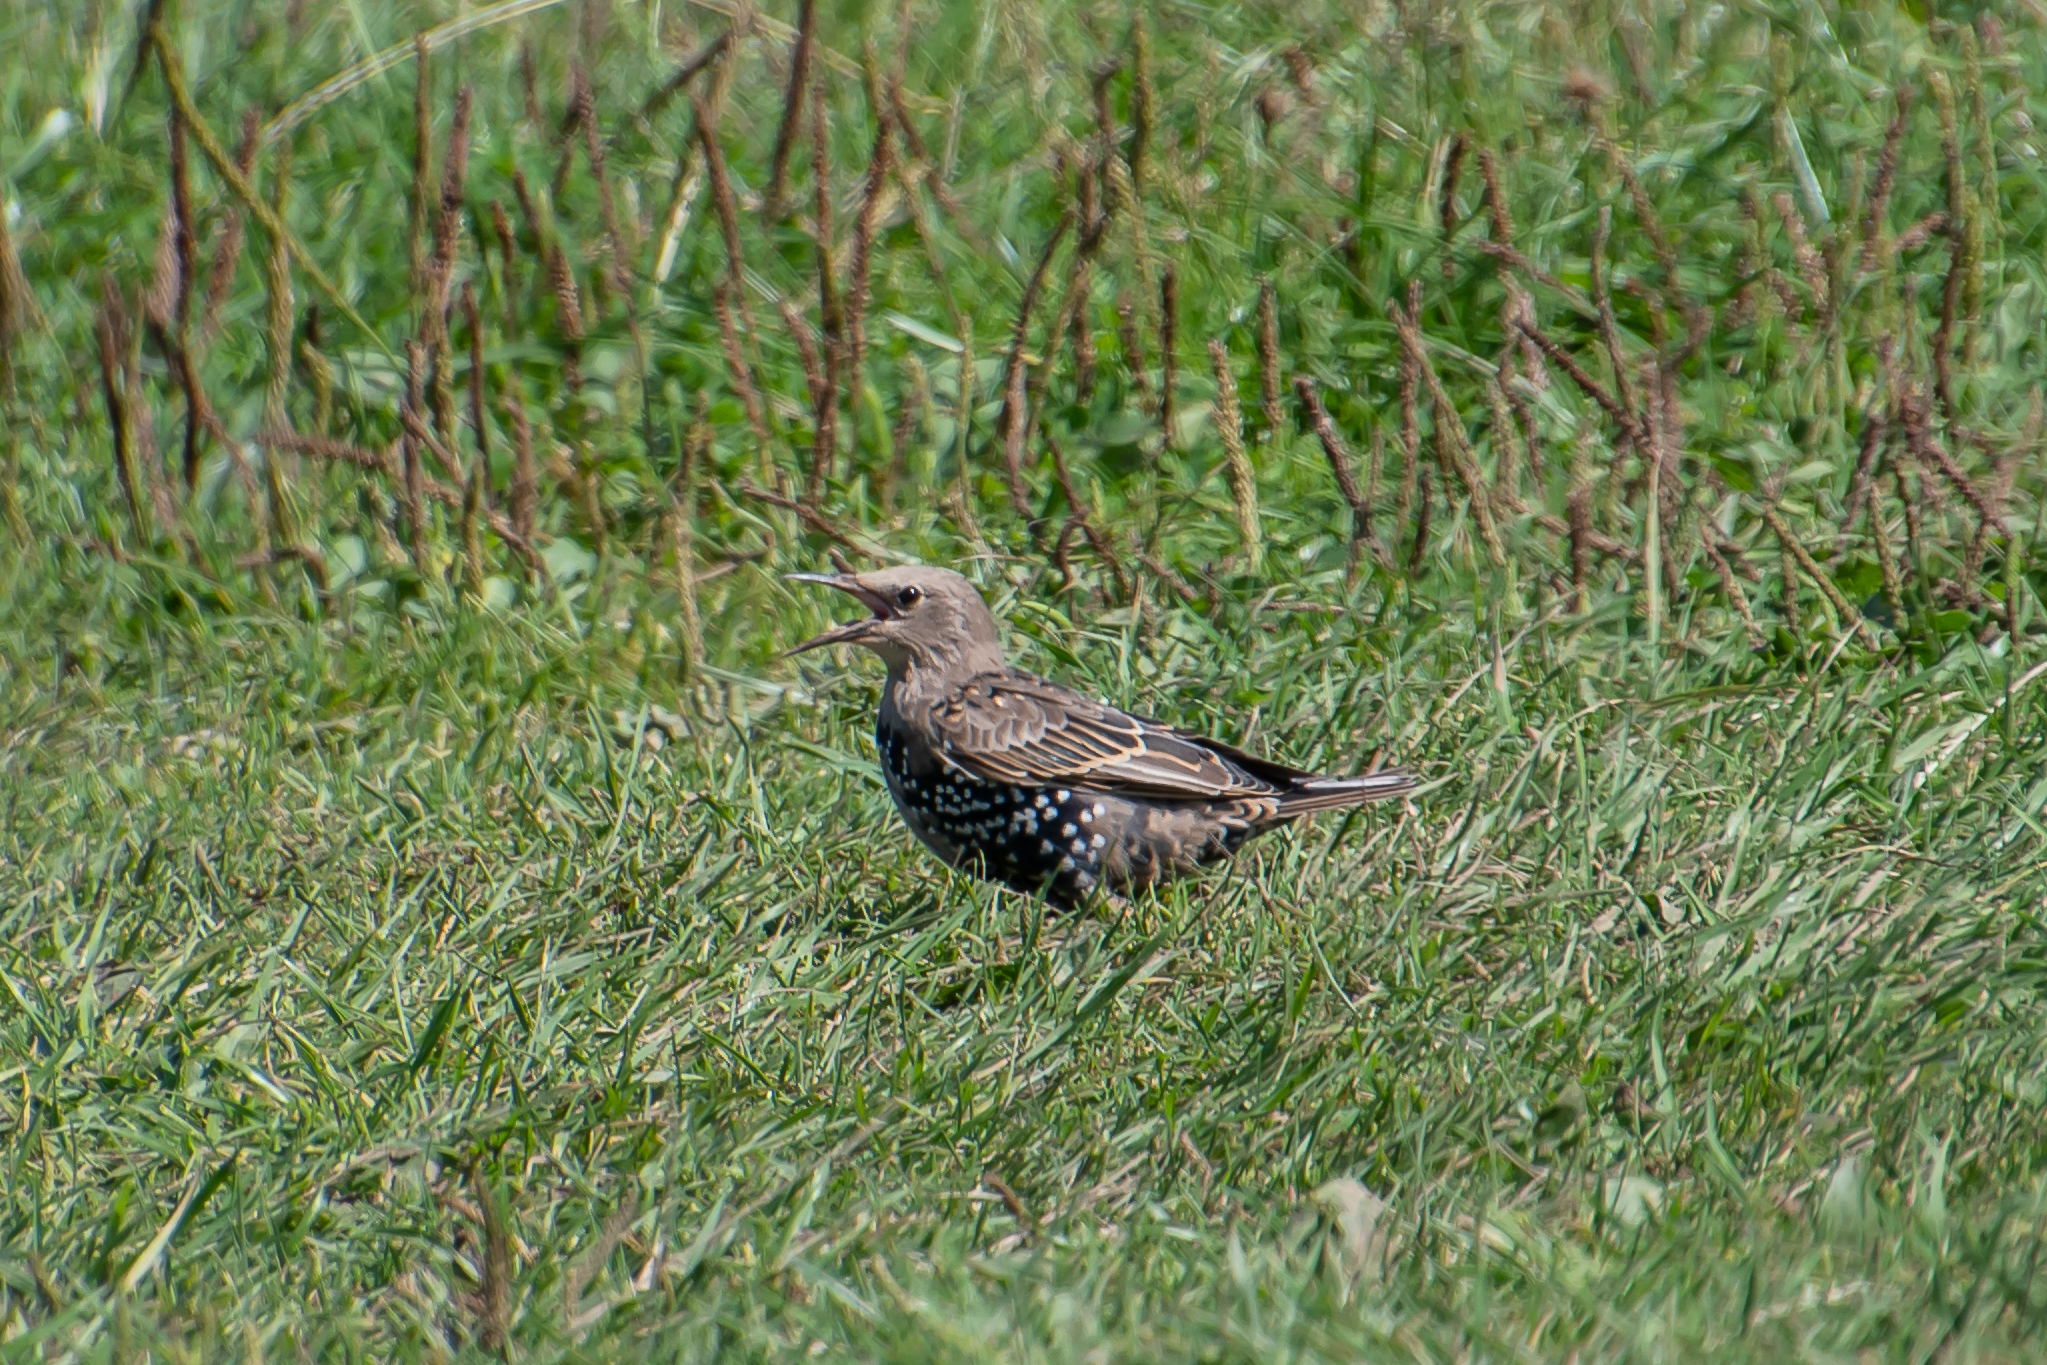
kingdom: Animalia
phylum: Chordata
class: Aves
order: Passeriformes
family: Sturnidae
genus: Sturnus
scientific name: Sturnus vulgaris
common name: Common starling
